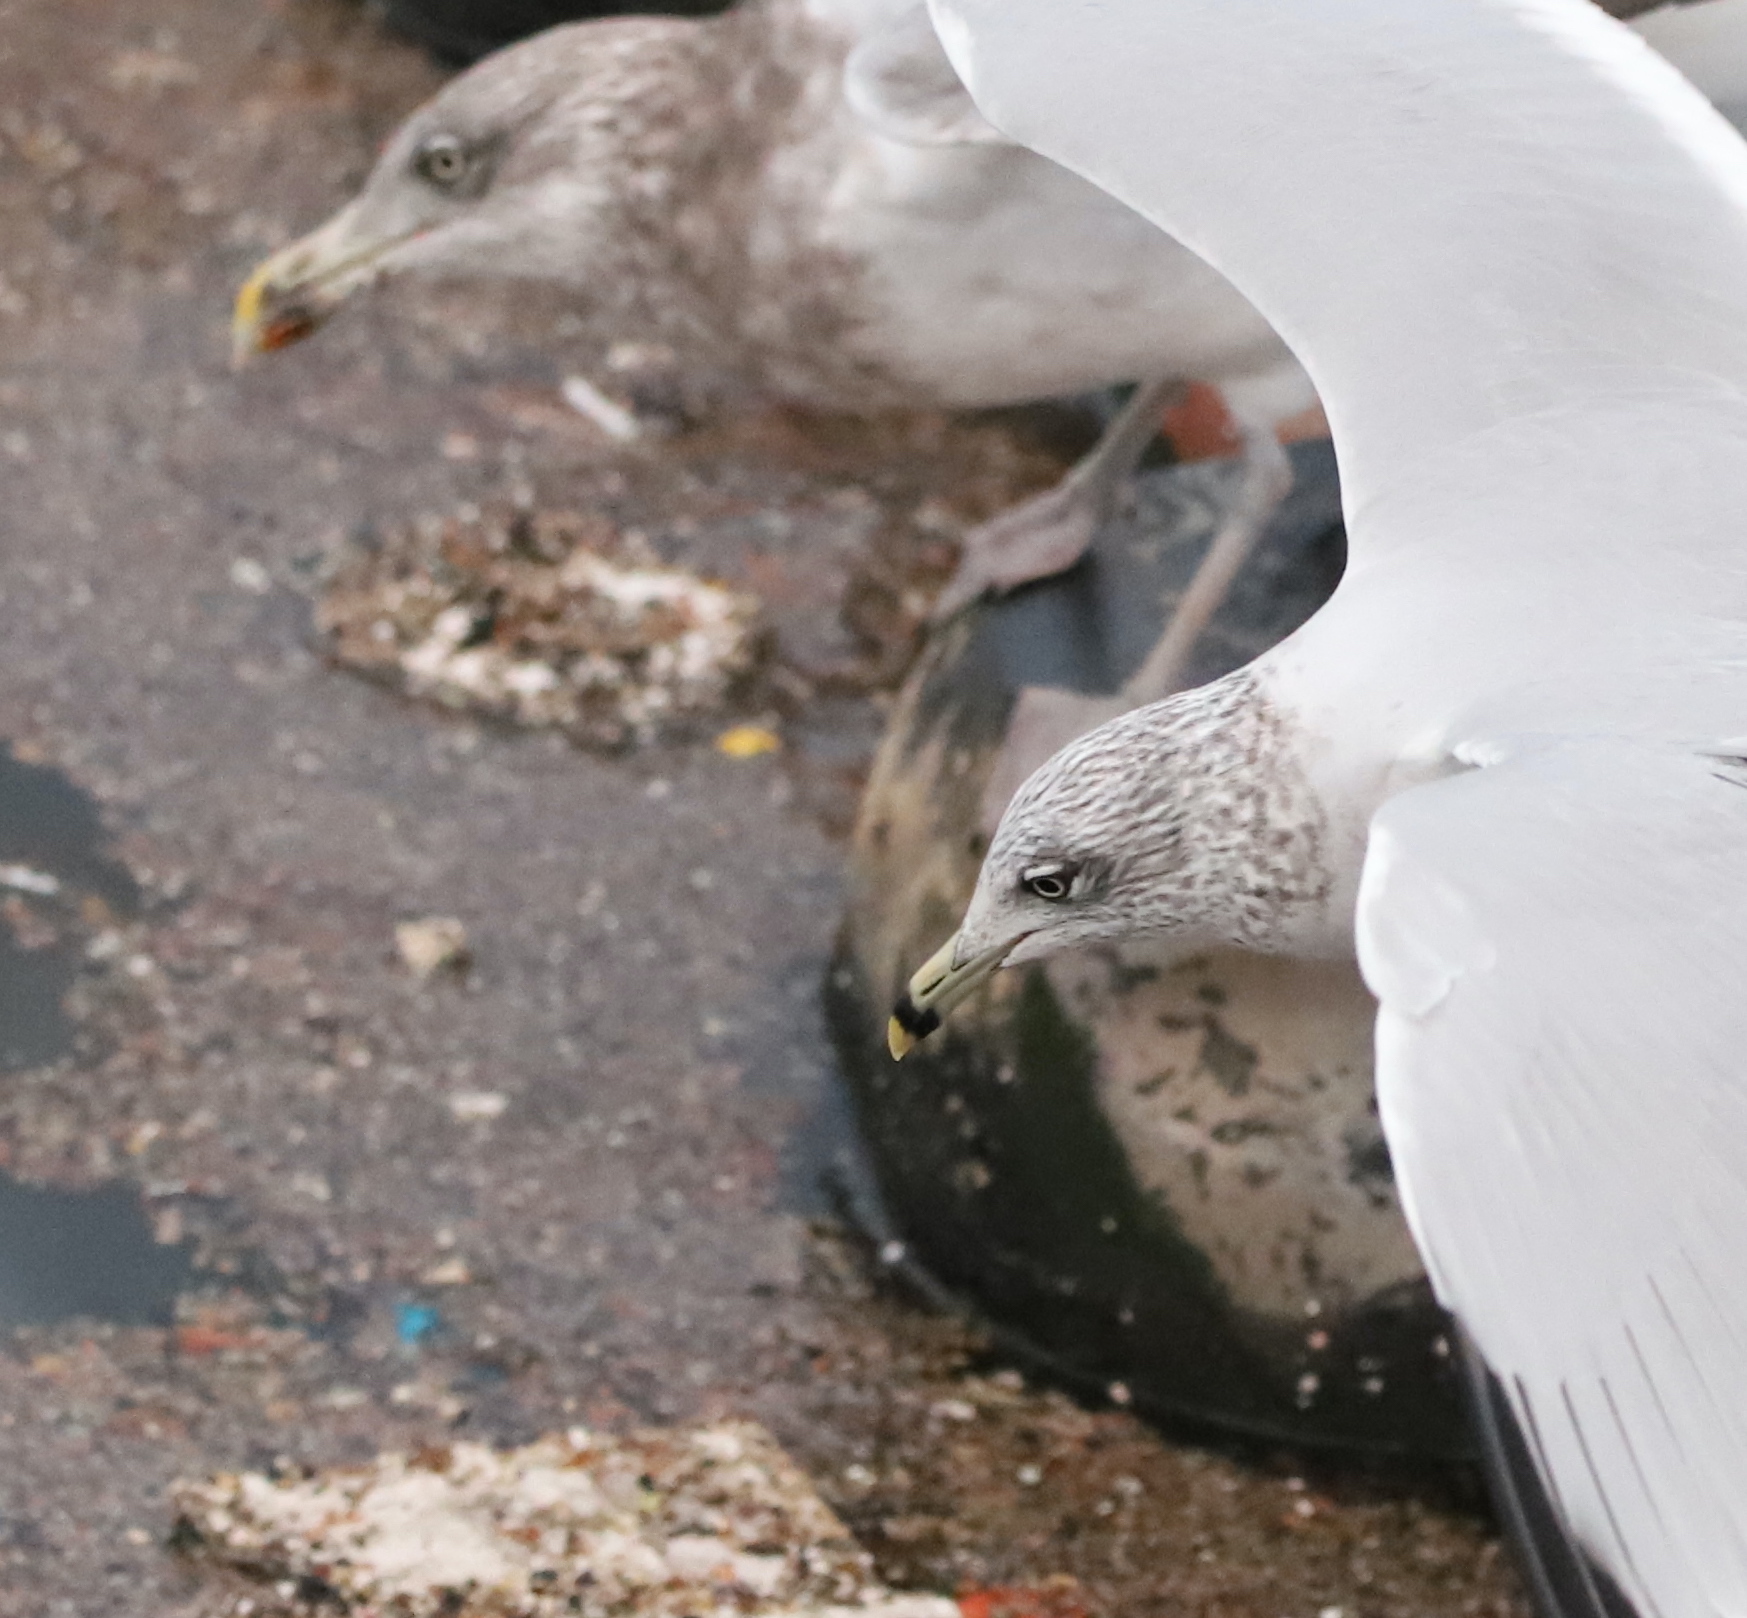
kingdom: Animalia
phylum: Chordata
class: Aves
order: Charadriiformes
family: Laridae
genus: Larus
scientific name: Larus delawarensis
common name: Ring-billed gull
